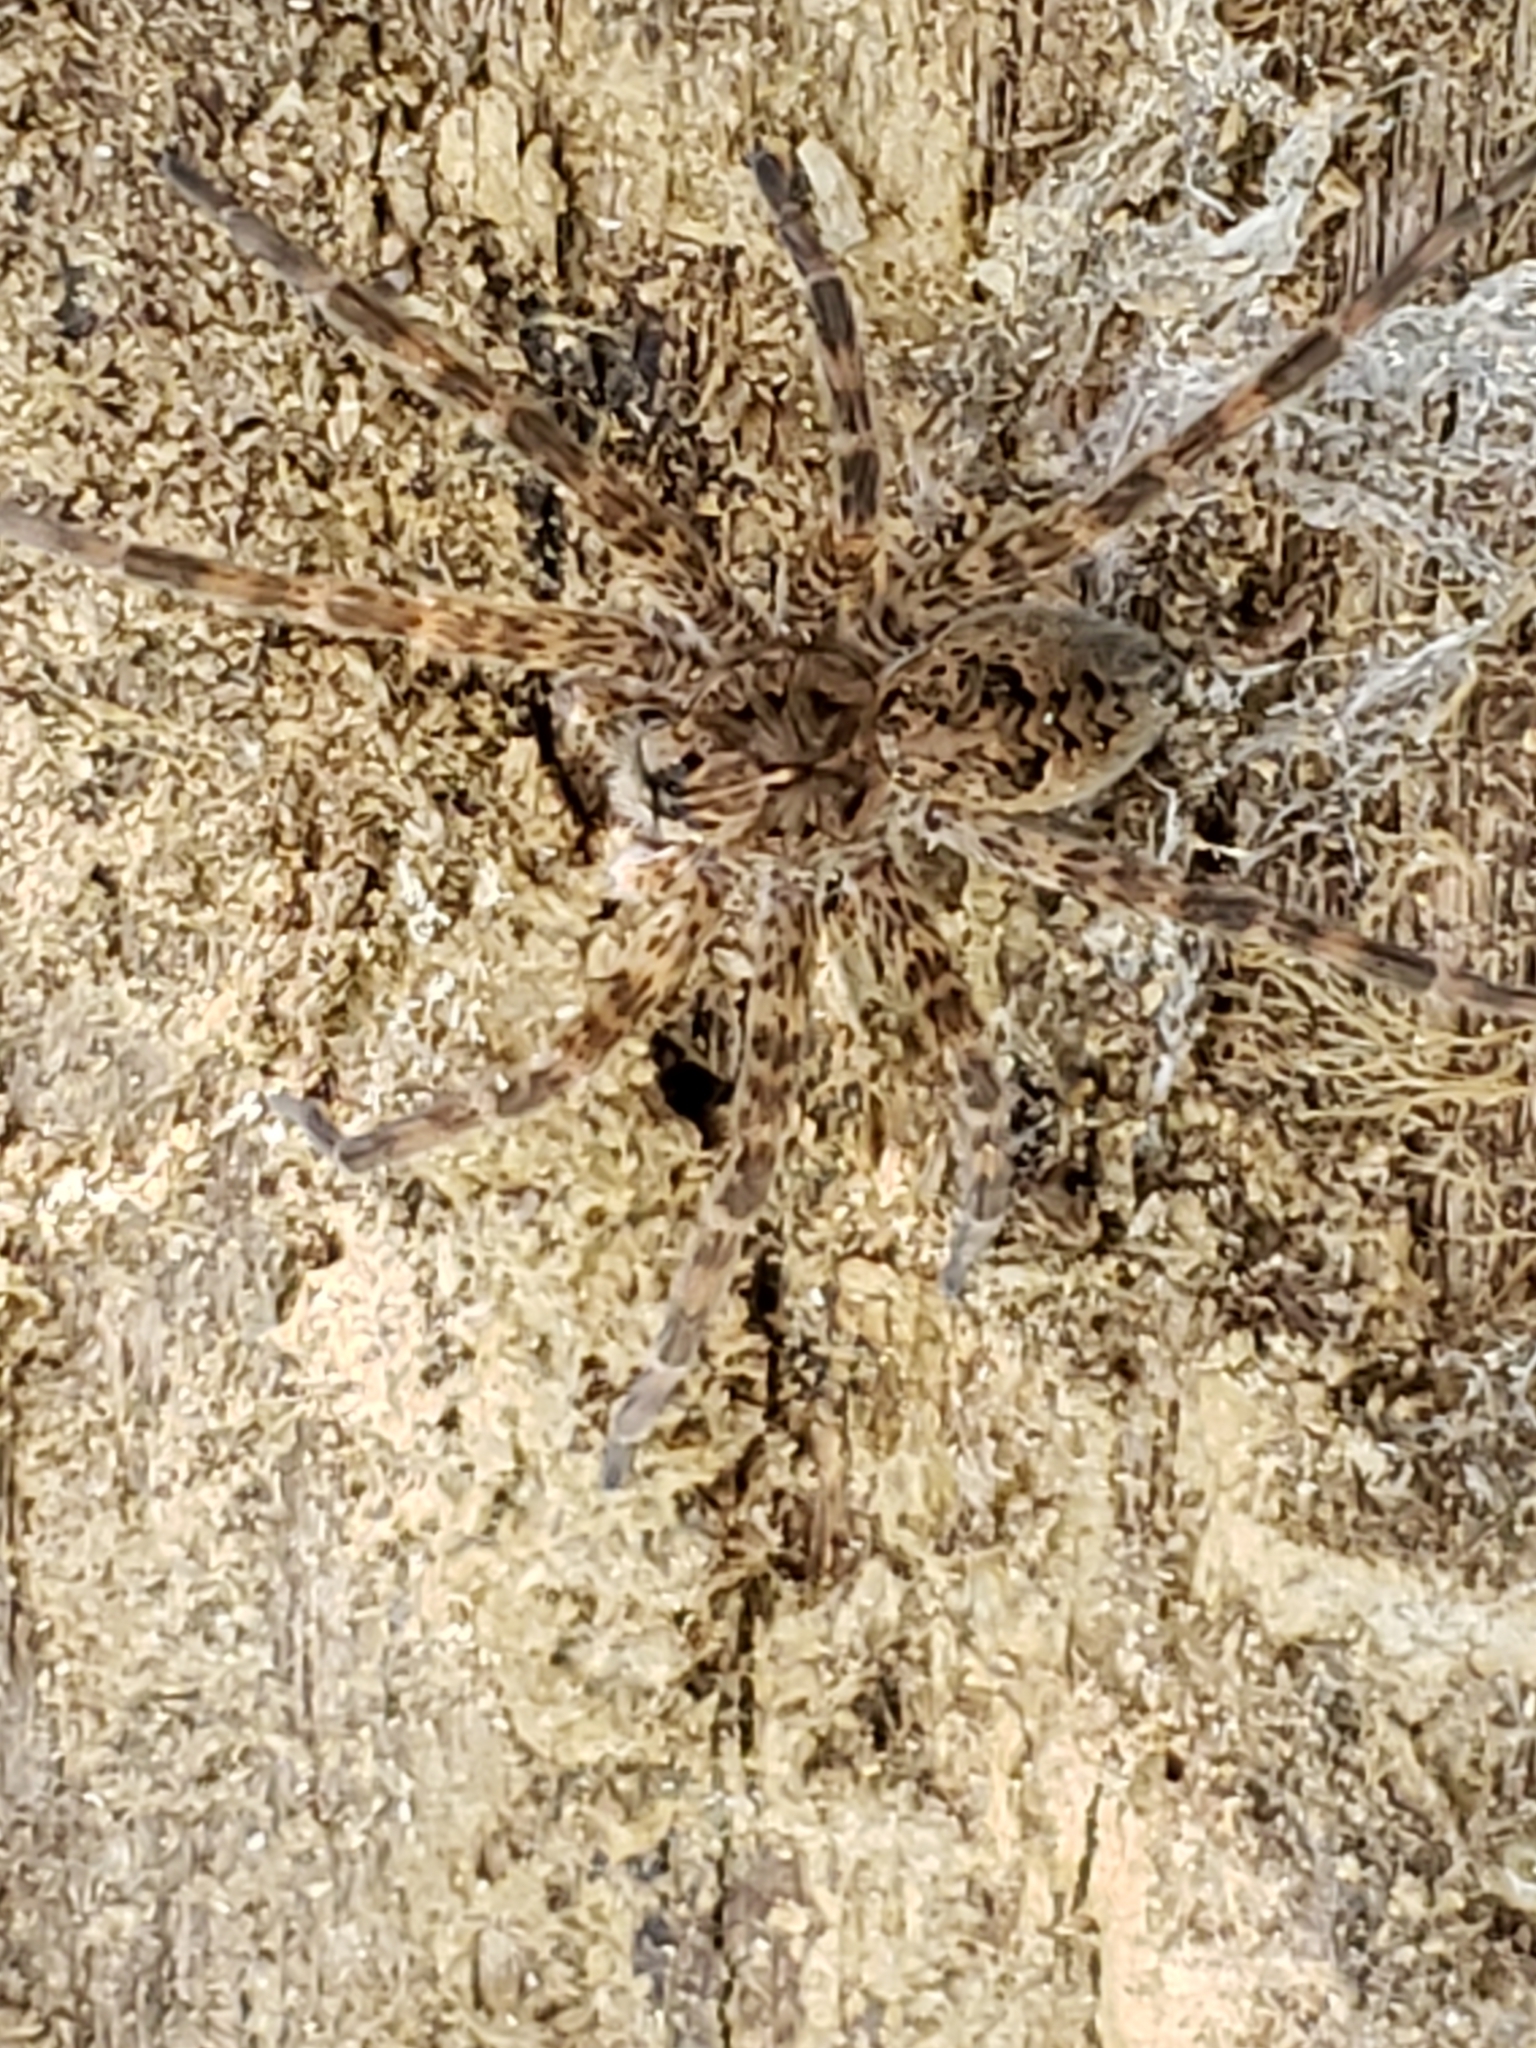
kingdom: Animalia
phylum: Arthropoda
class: Arachnida
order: Araneae
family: Pisauridae
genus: Dolomedes
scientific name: Dolomedes tenebrosus
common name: Dark fishing spider
